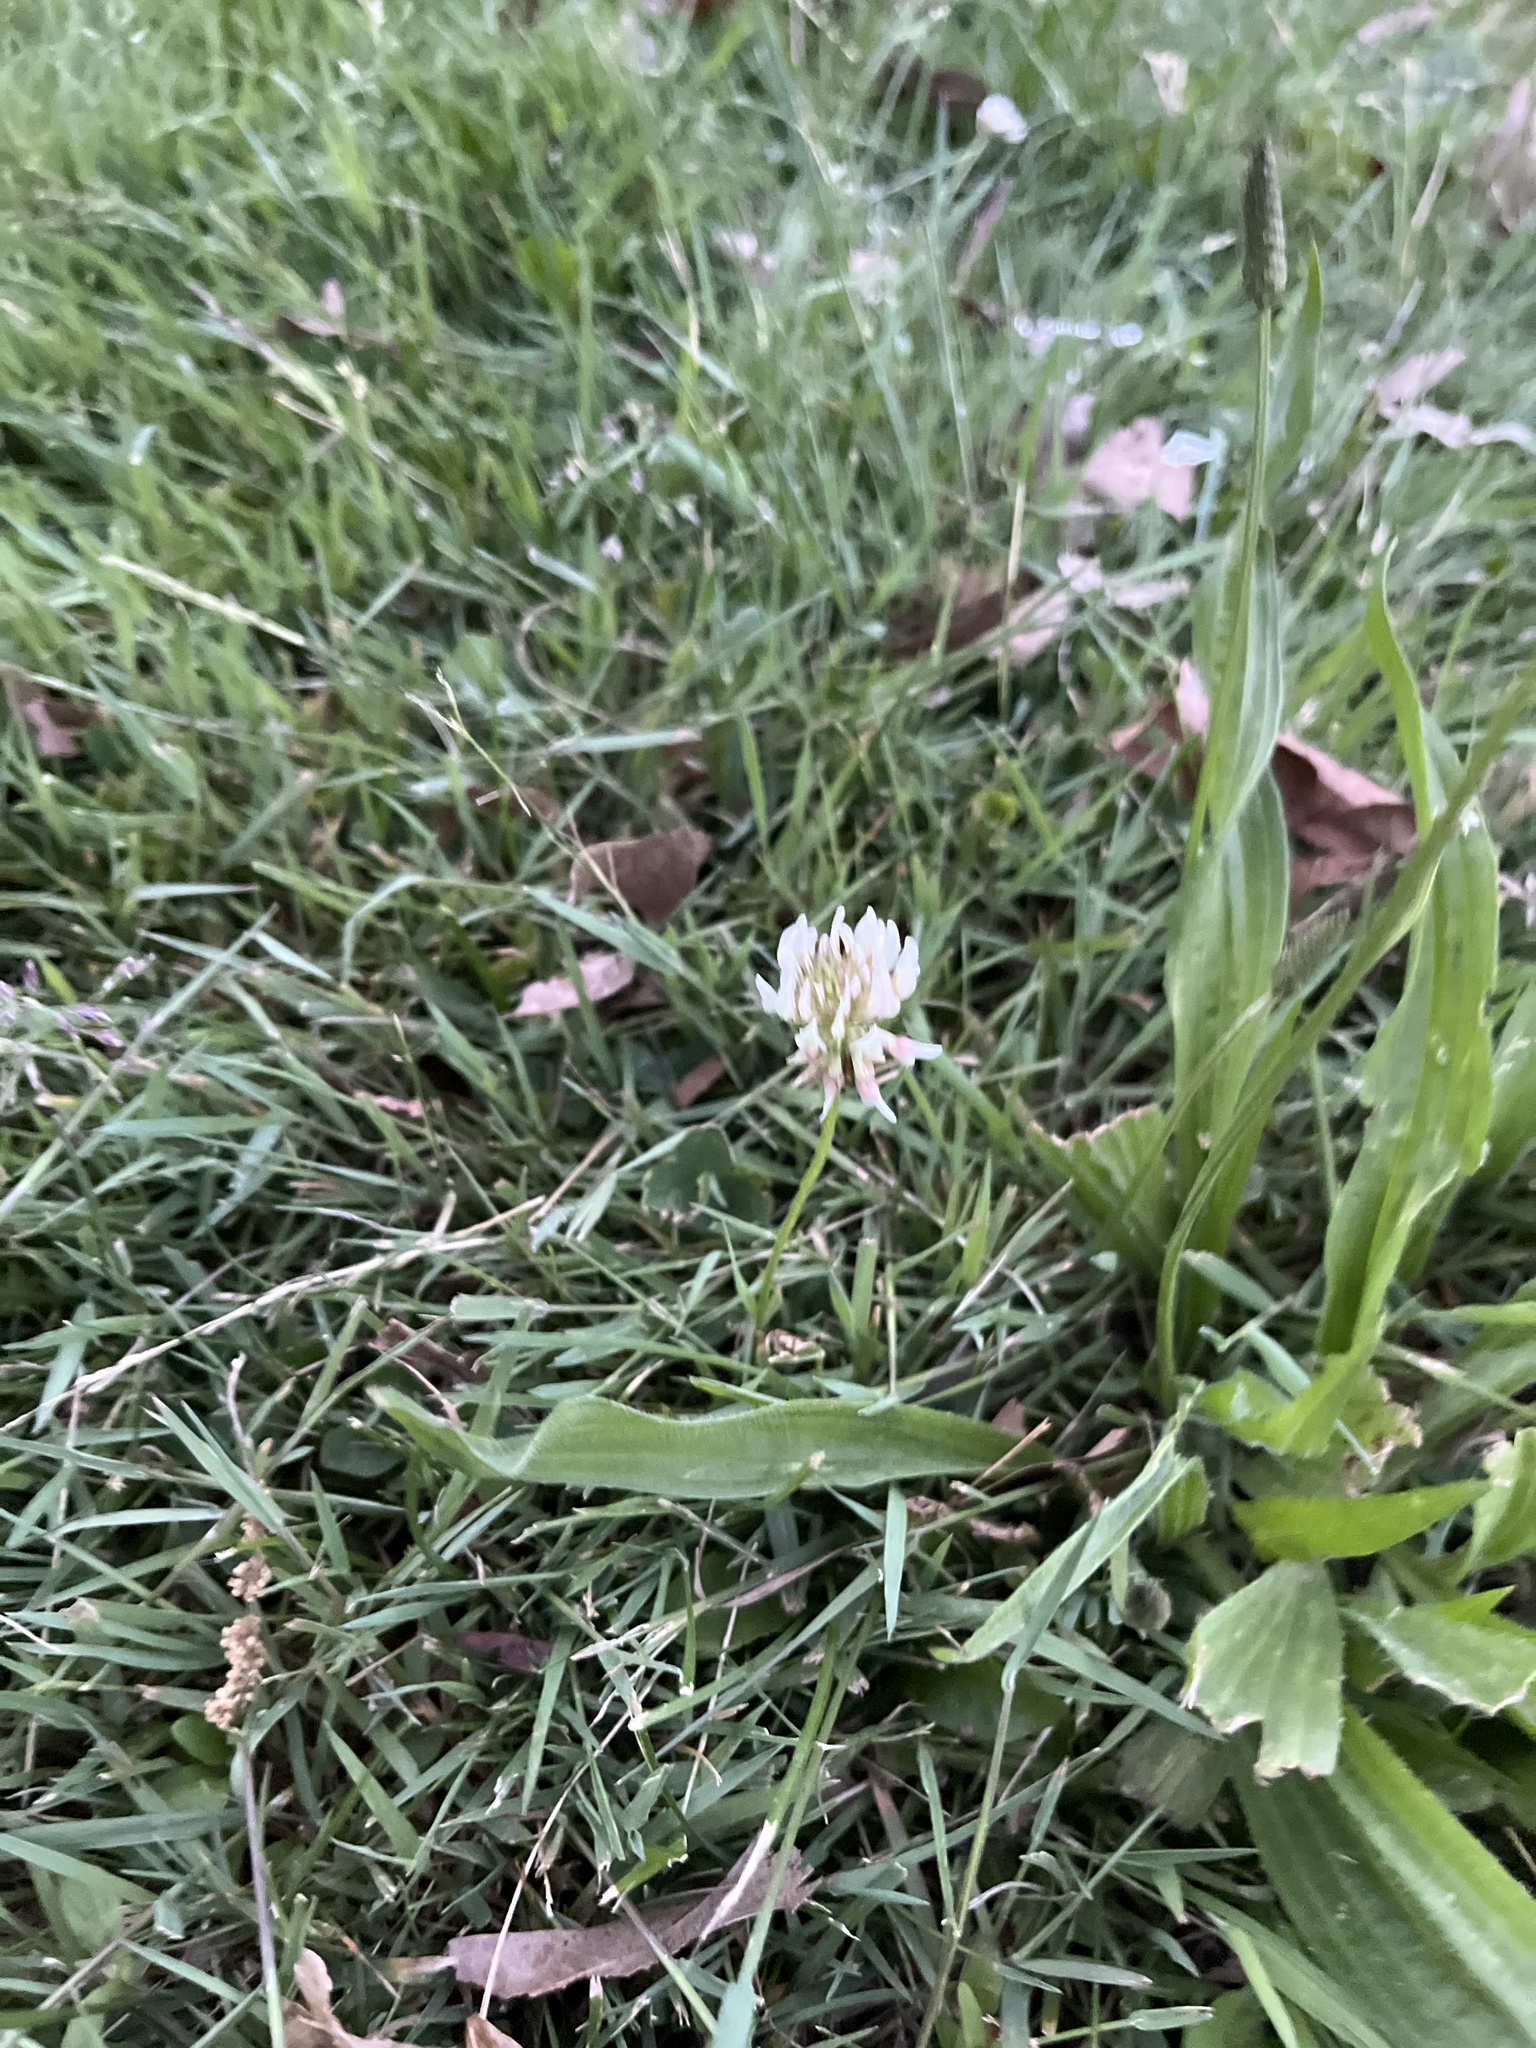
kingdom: Plantae
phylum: Tracheophyta
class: Magnoliopsida
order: Fabales
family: Fabaceae
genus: Trifolium
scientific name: Trifolium repens
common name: White clover
